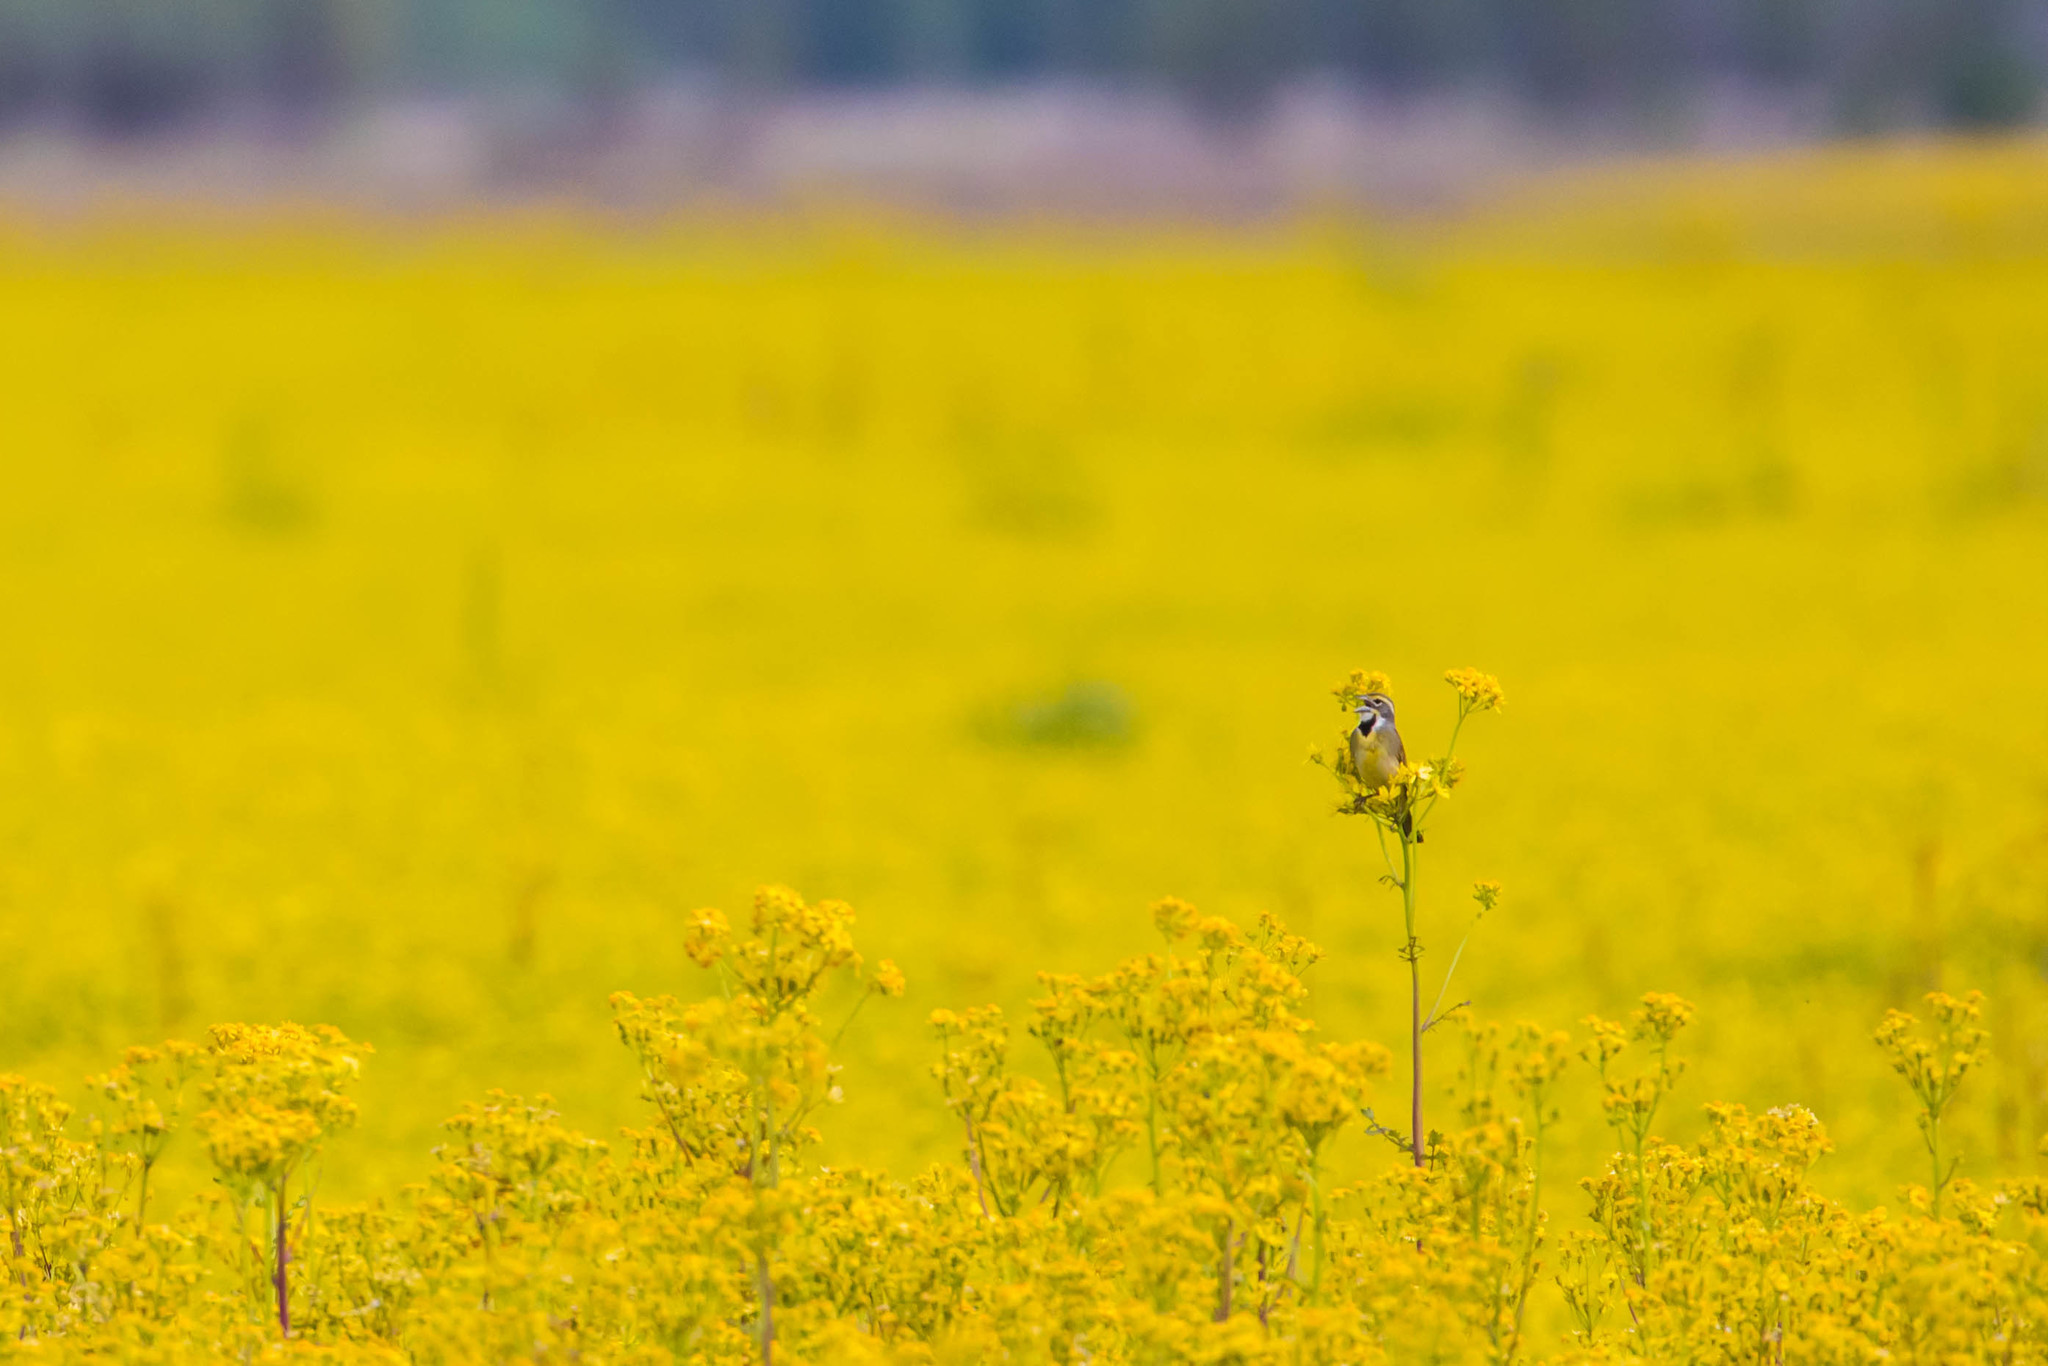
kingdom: Animalia
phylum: Chordata
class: Aves
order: Passeriformes
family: Cardinalidae
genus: Spiza
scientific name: Spiza americana
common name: Dickcissel
